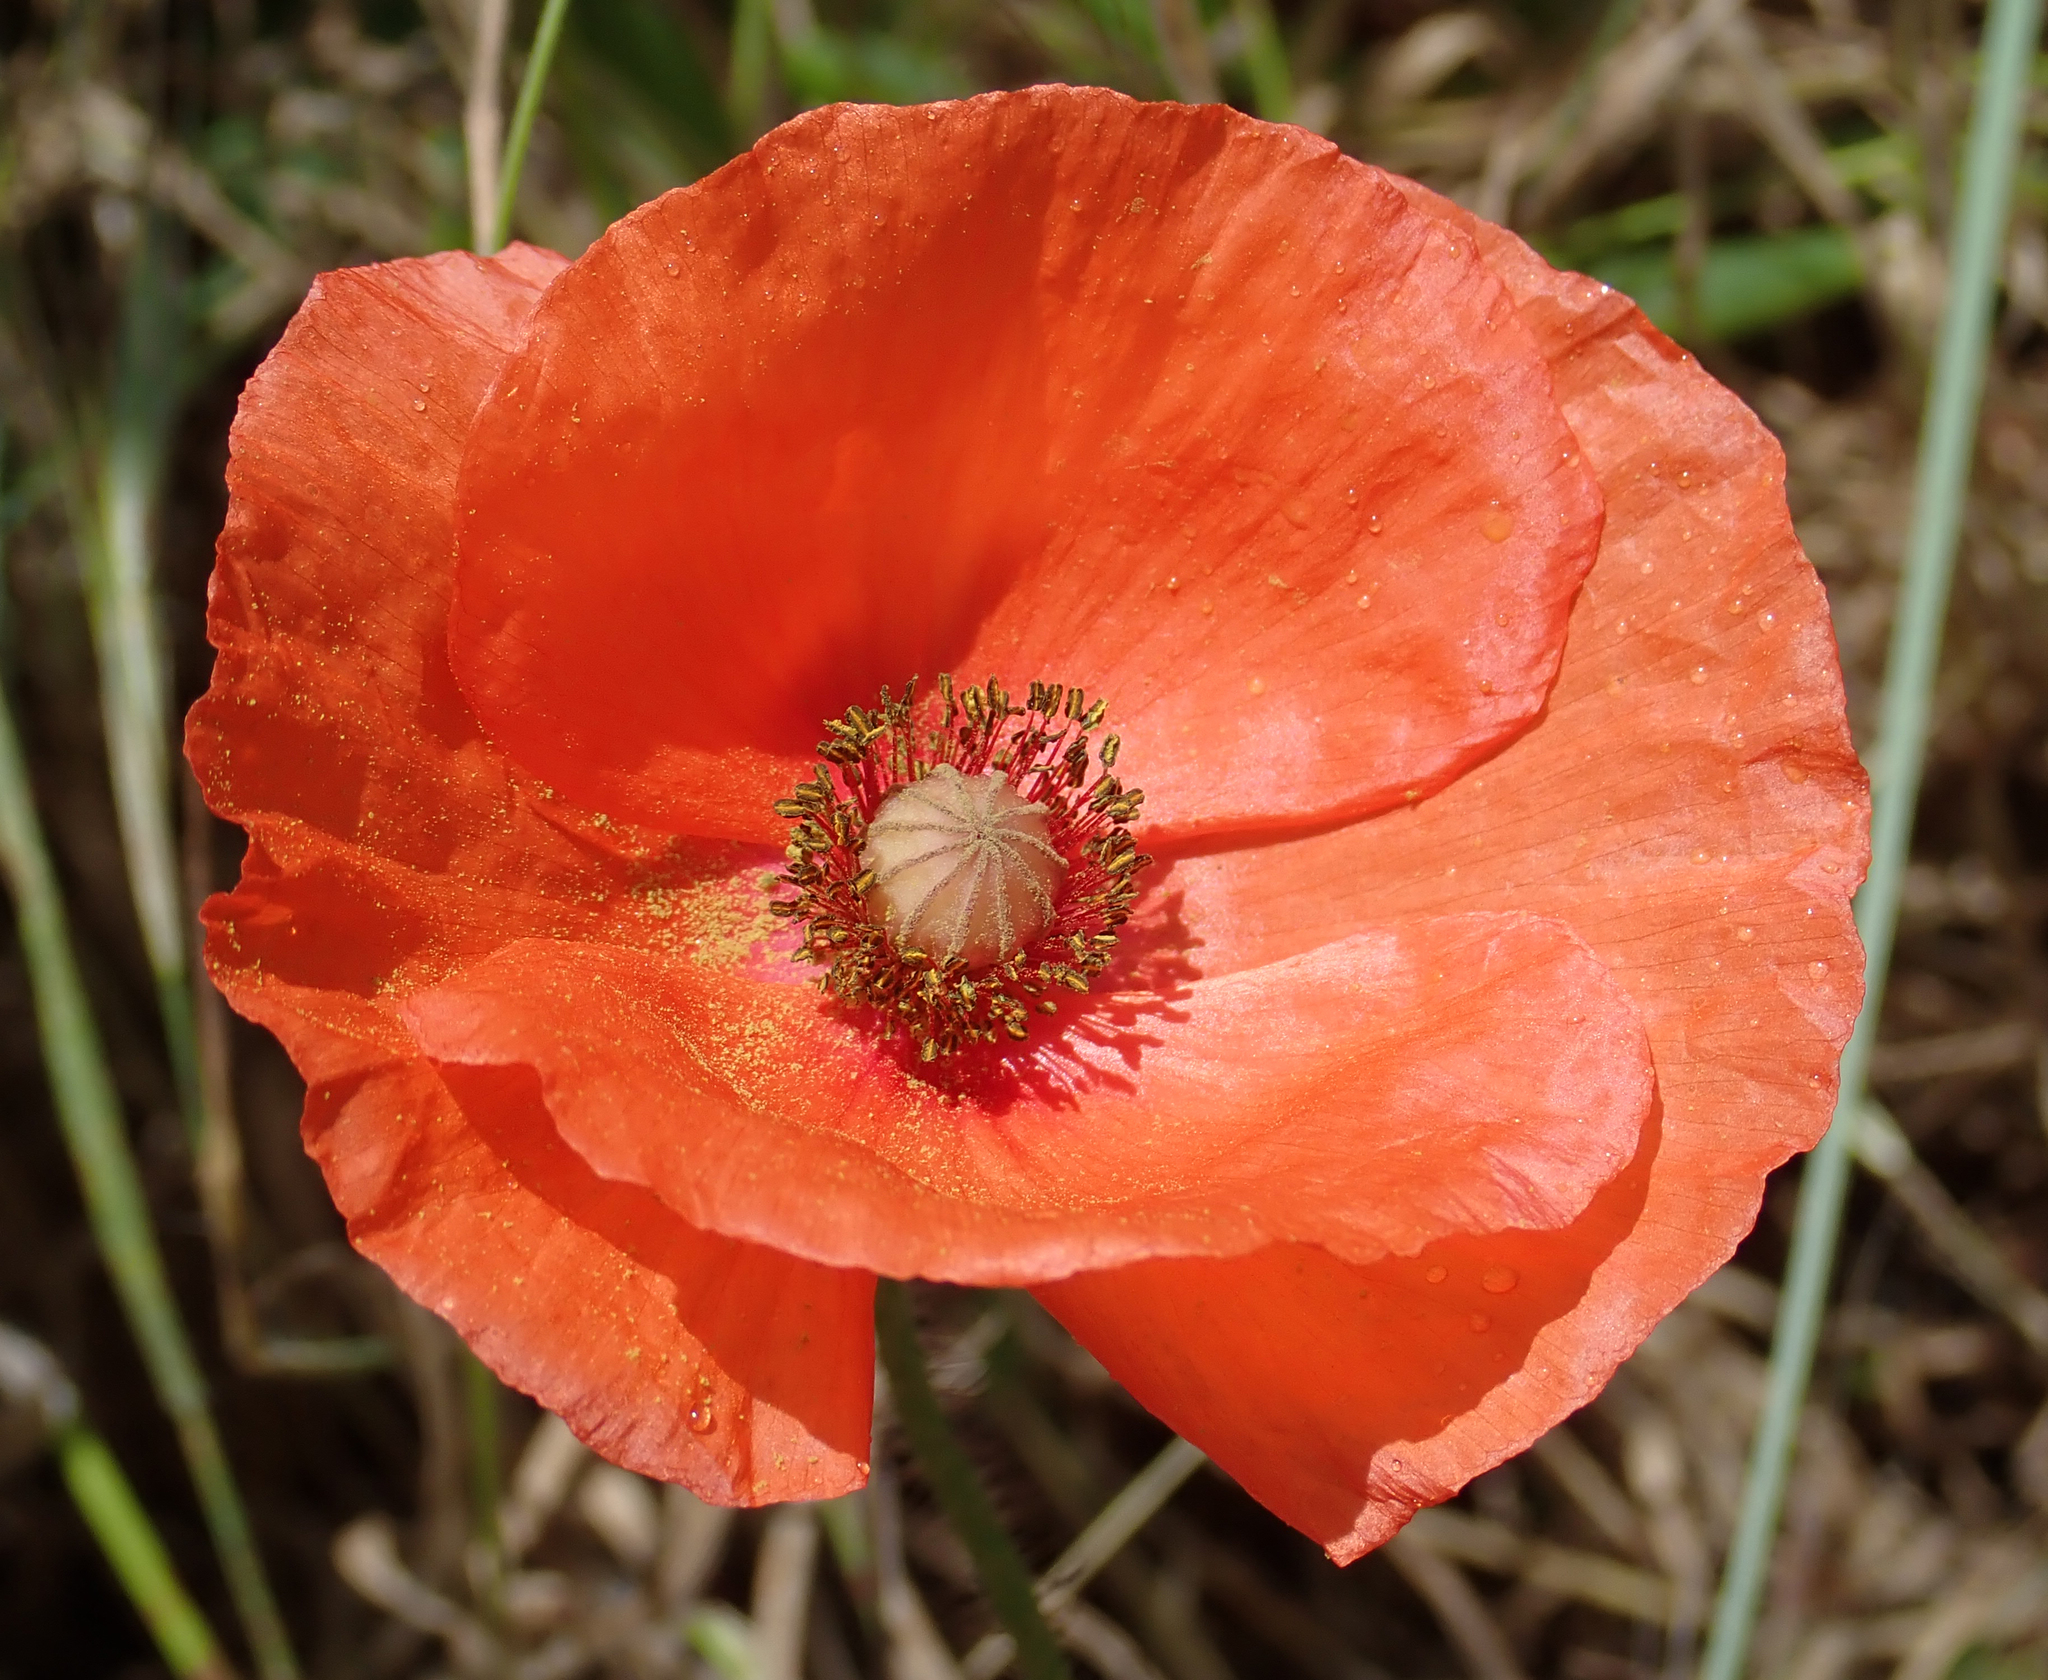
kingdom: Plantae
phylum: Tracheophyta
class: Magnoliopsida
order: Ranunculales
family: Papaveraceae
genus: Papaver
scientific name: Papaver dubium
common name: Long-headed poppy
